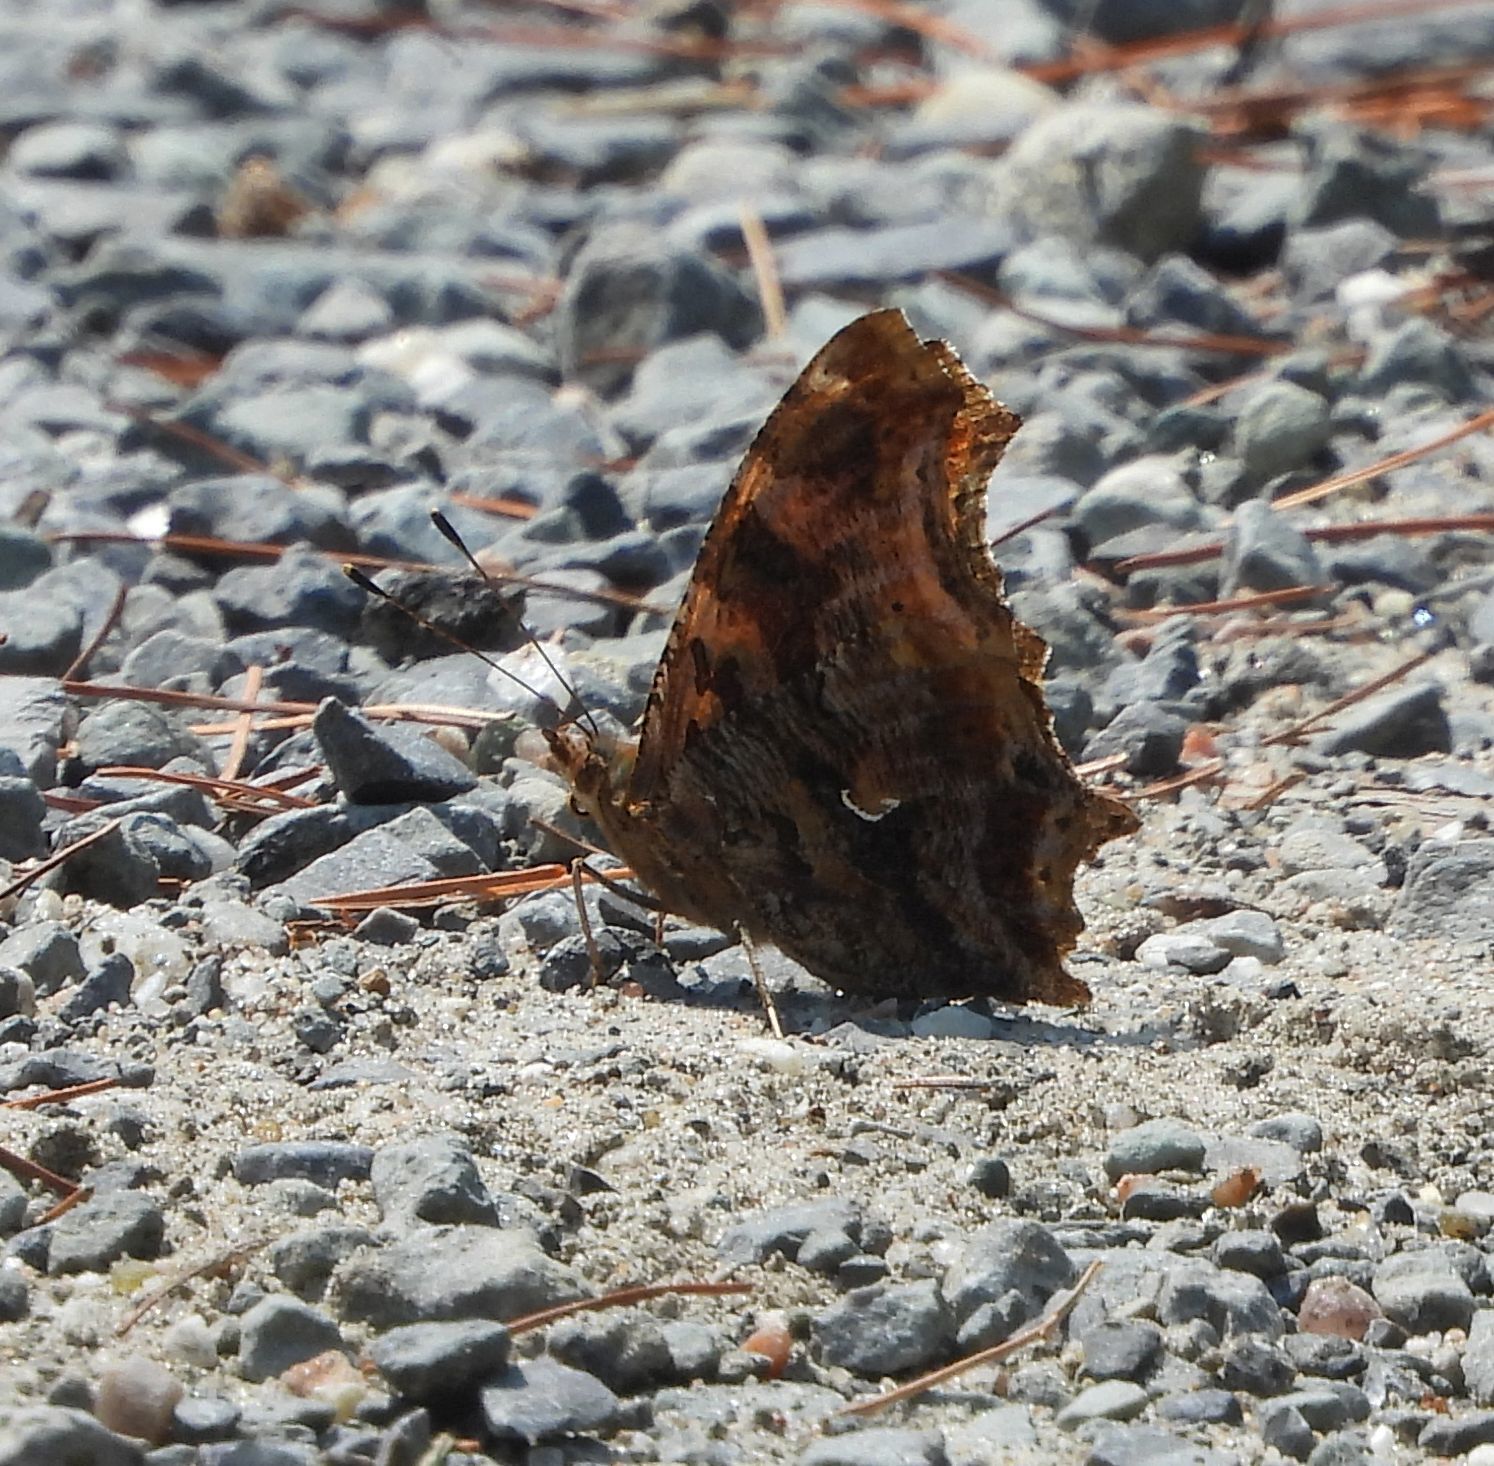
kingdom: Animalia
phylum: Arthropoda
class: Insecta
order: Lepidoptera
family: Nymphalidae
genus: Polygonia
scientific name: Polygonia comma
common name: Eastern comma
